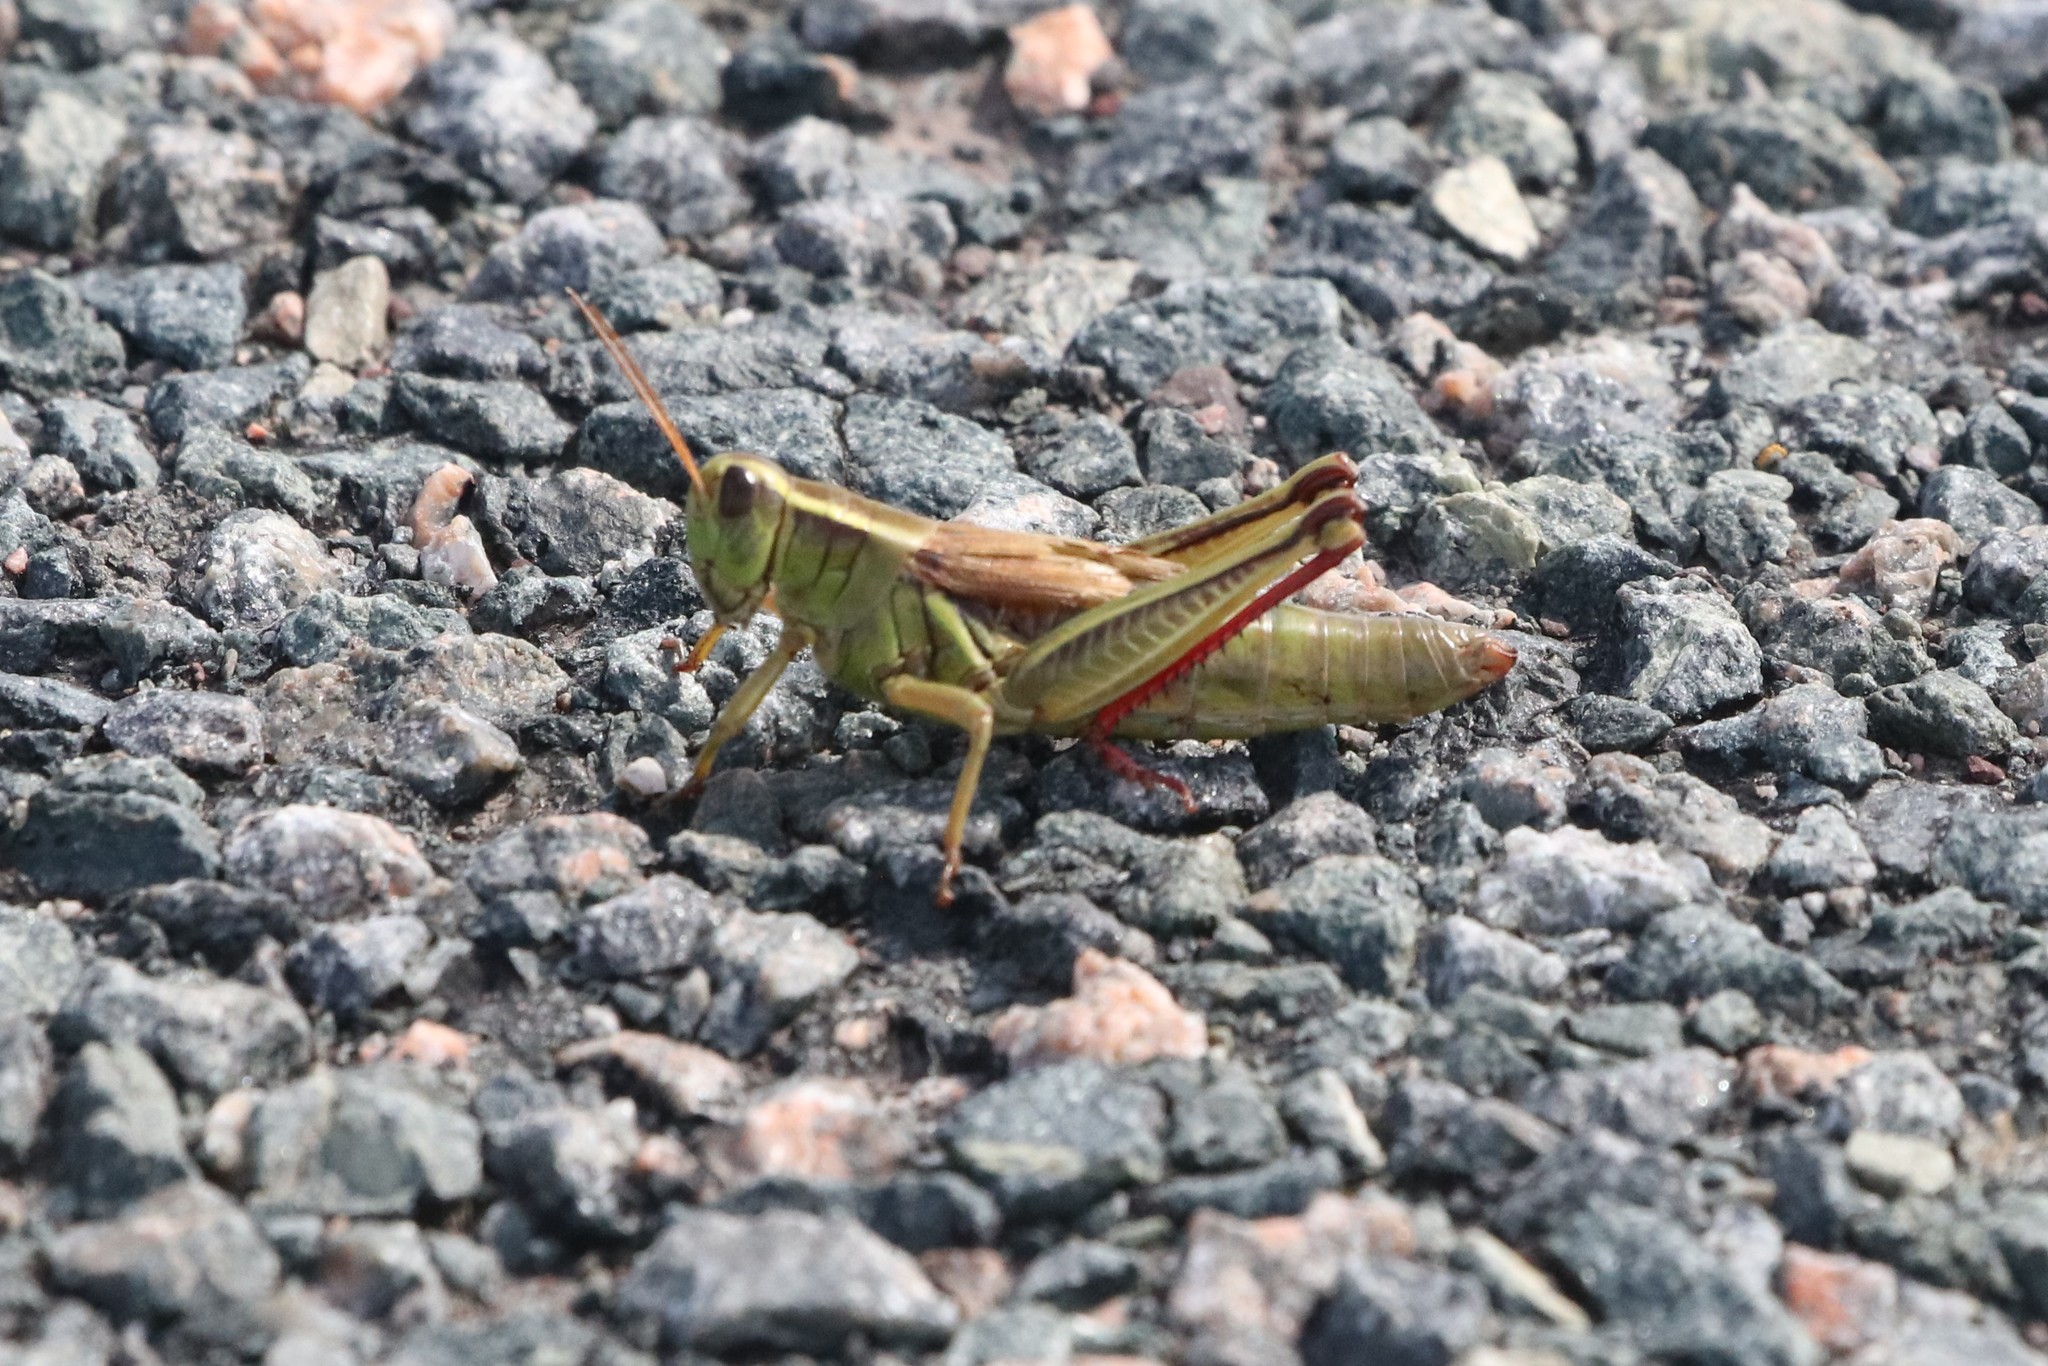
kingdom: Animalia
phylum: Arthropoda
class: Insecta
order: Orthoptera
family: Acrididae
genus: Melanoplus
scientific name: Melanoplus bivittatus
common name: Two-striped grasshopper
